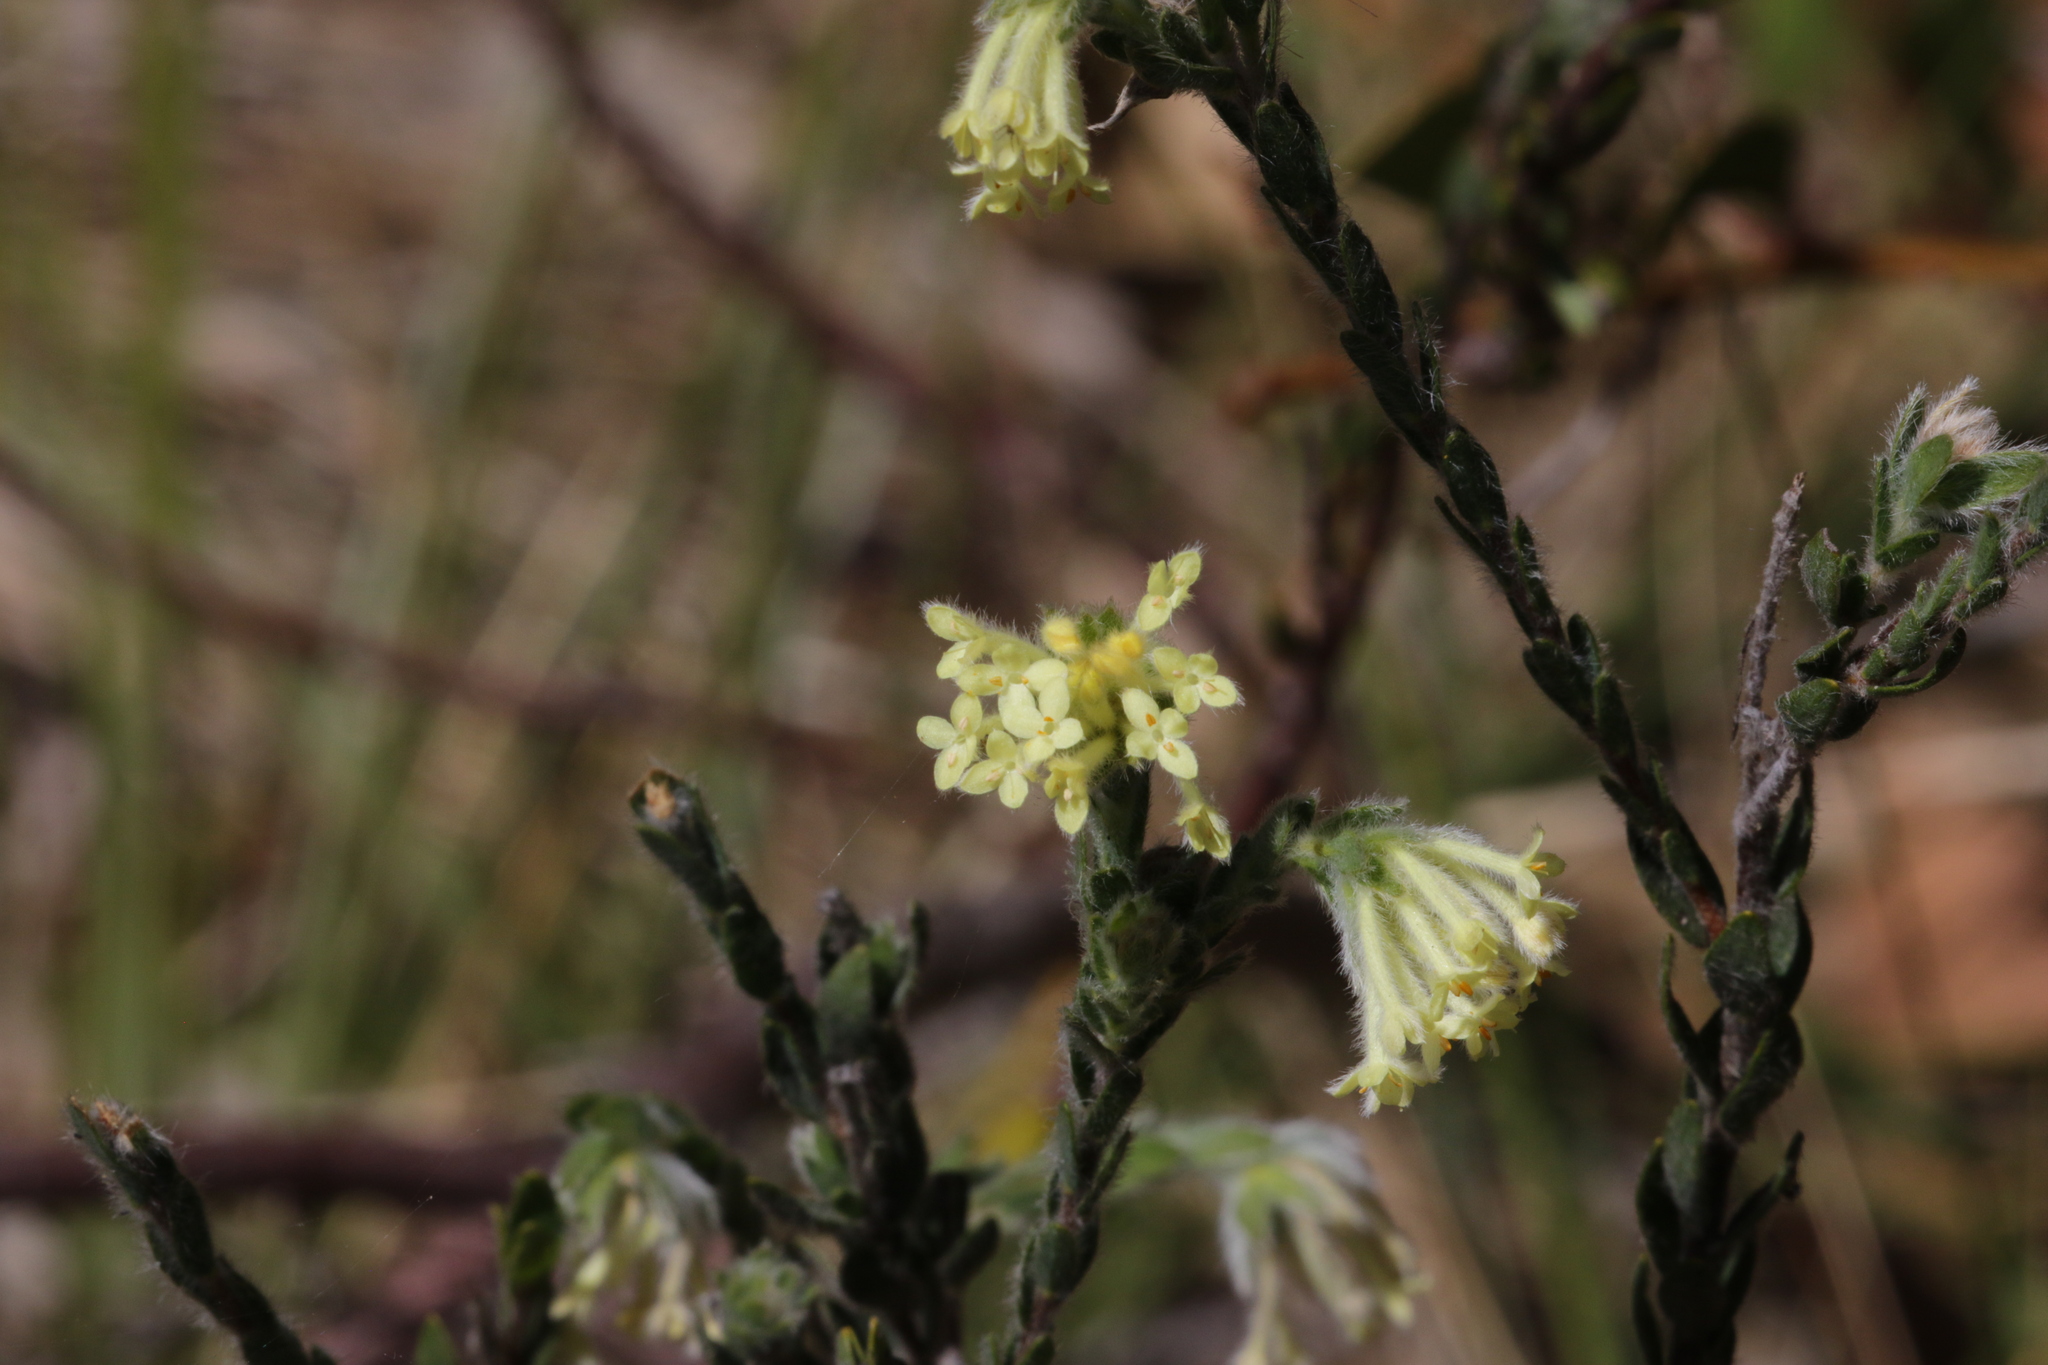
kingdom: Plantae
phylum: Tracheophyta
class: Magnoliopsida
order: Malvales
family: Thymelaeaceae
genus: Pimelea
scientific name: Pimelea octophylla
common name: Woolly riceflower
